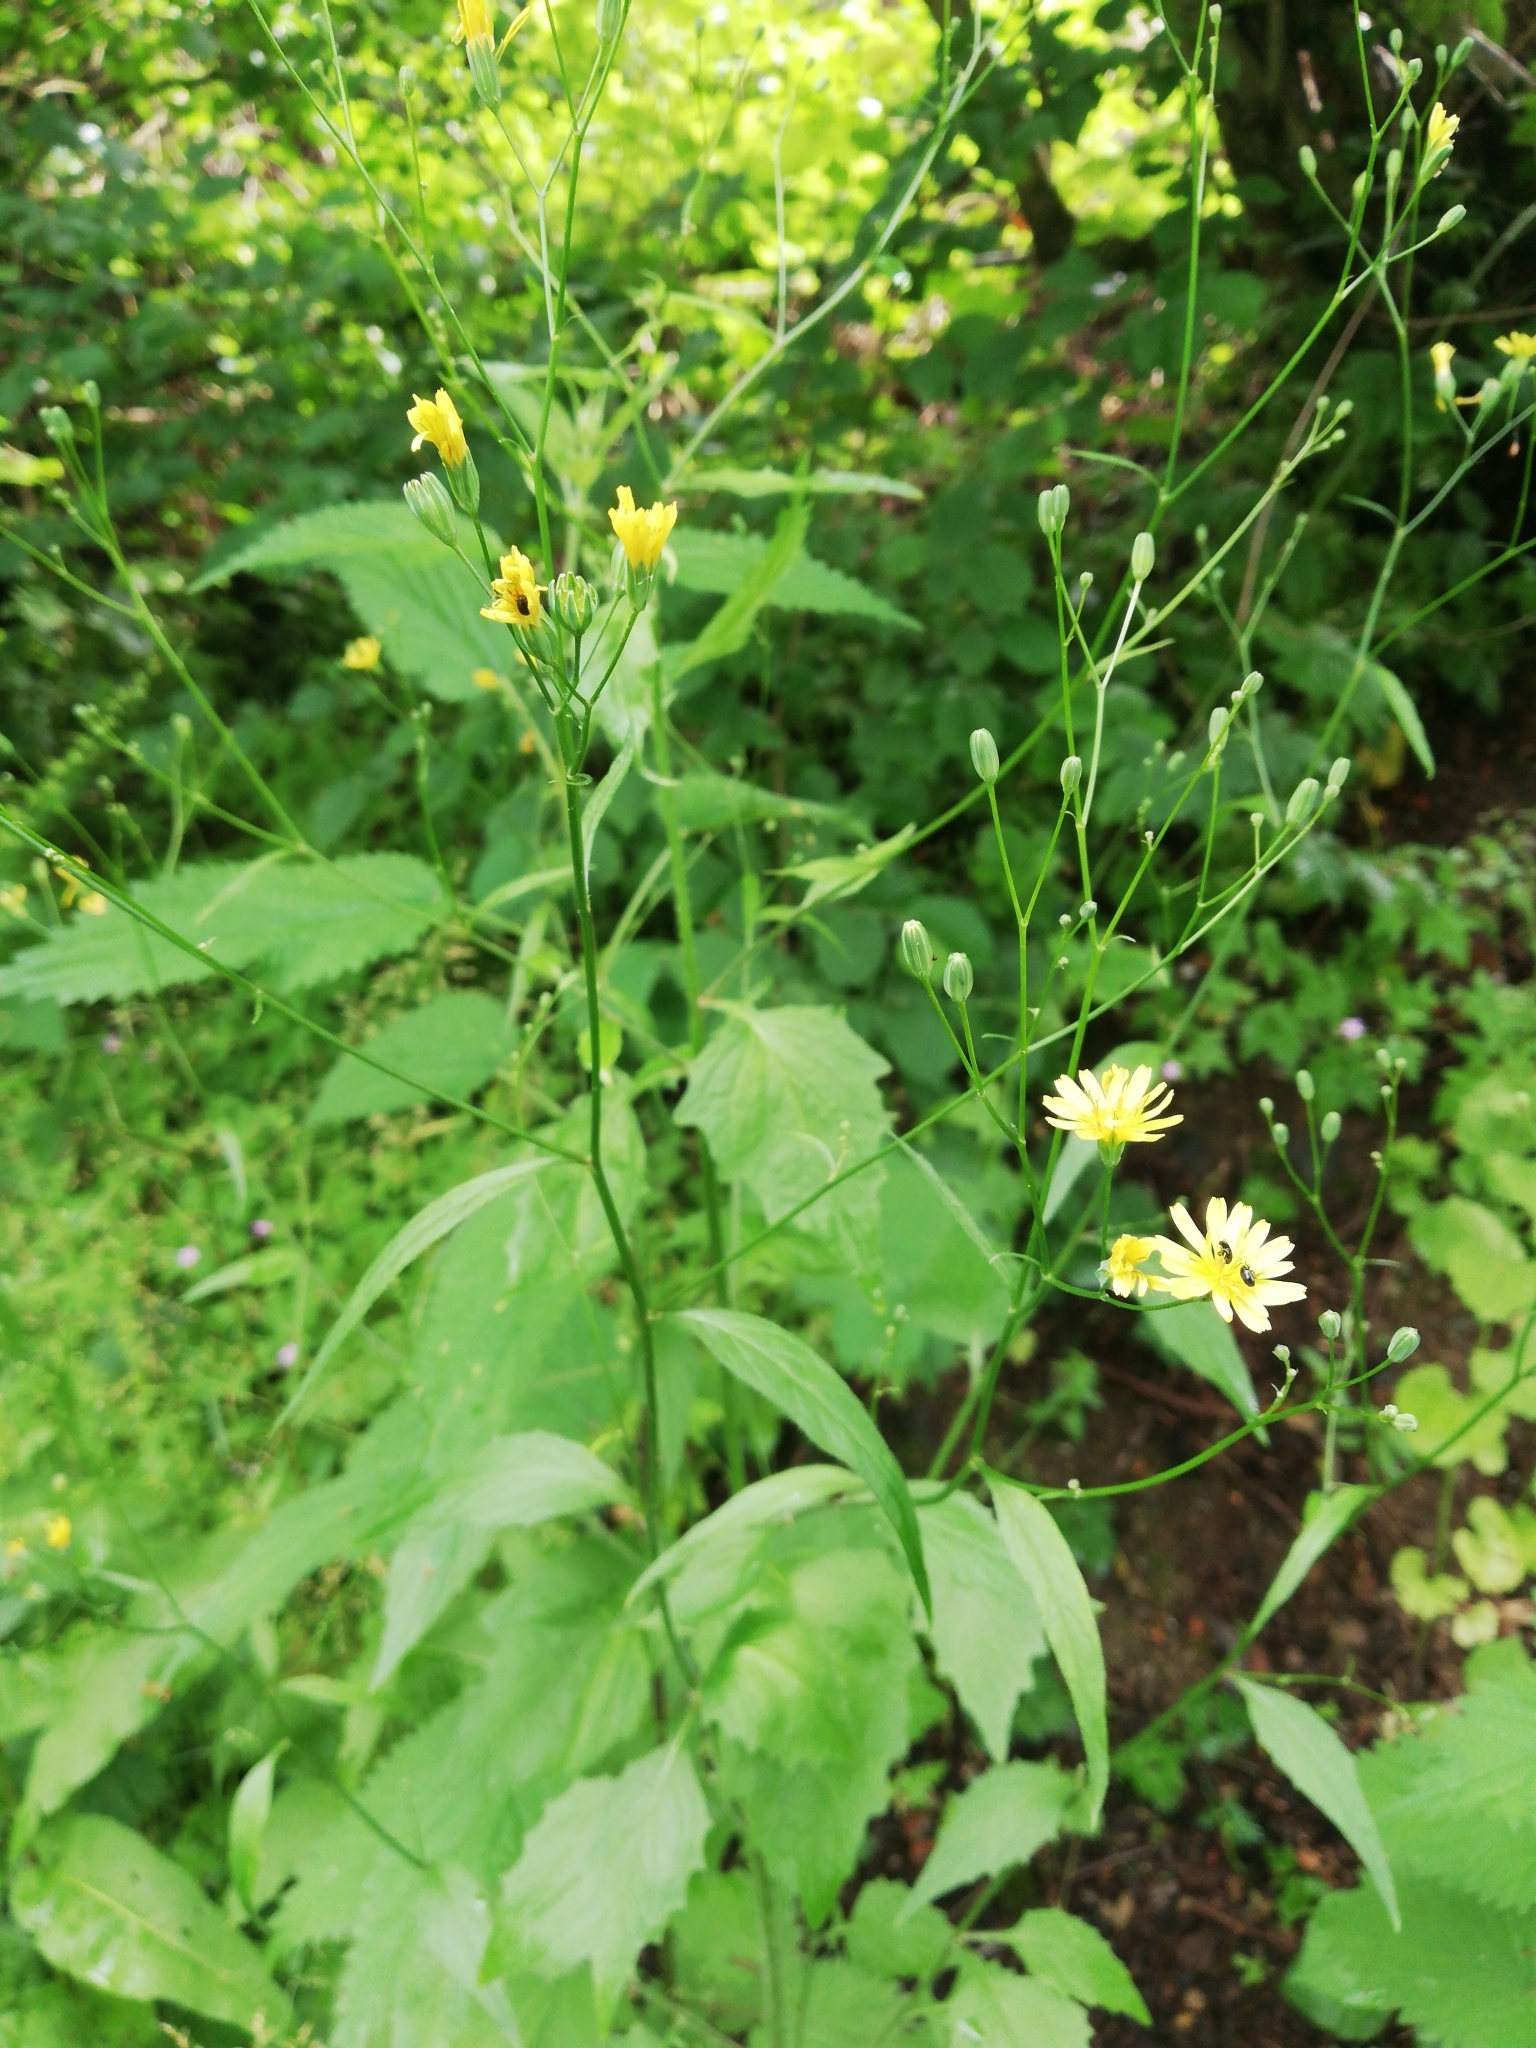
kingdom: Plantae
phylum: Tracheophyta
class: Magnoliopsida
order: Asterales
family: Asteraceae
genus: Lapsana
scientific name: Lapsana communis
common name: Nipplewort
